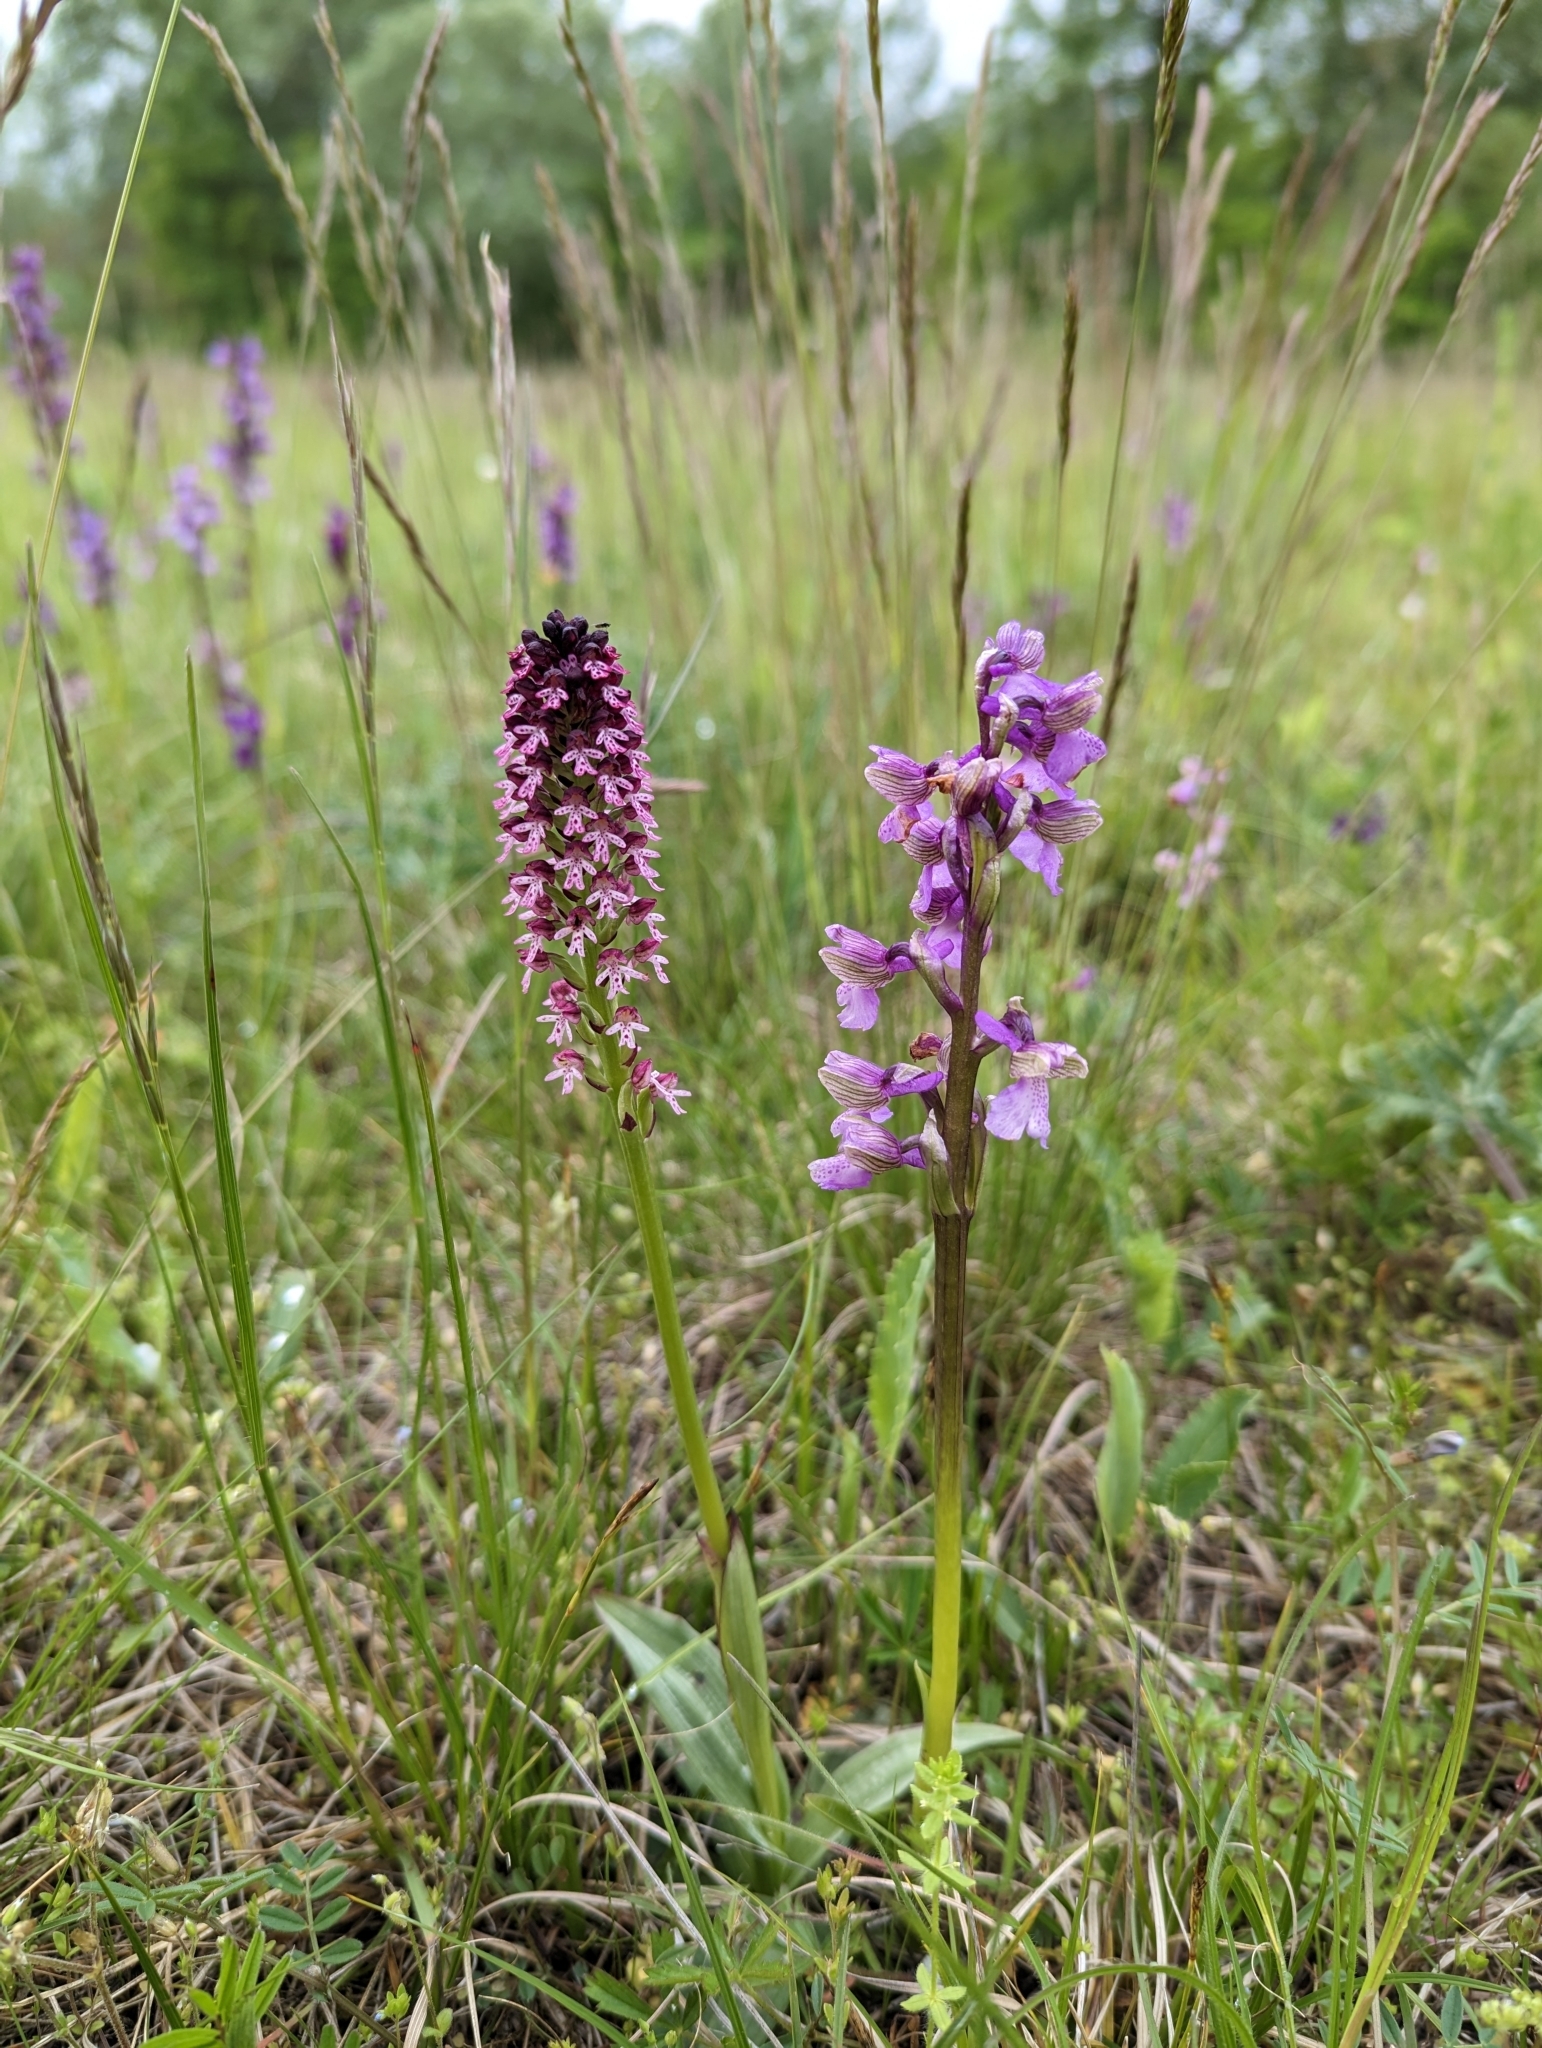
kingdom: Plantae
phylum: Tracheophyta
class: Liliopsida
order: Asparagales
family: Orchidaceae
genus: Neotinea
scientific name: Neotinea ustulata
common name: Burnt orchid
